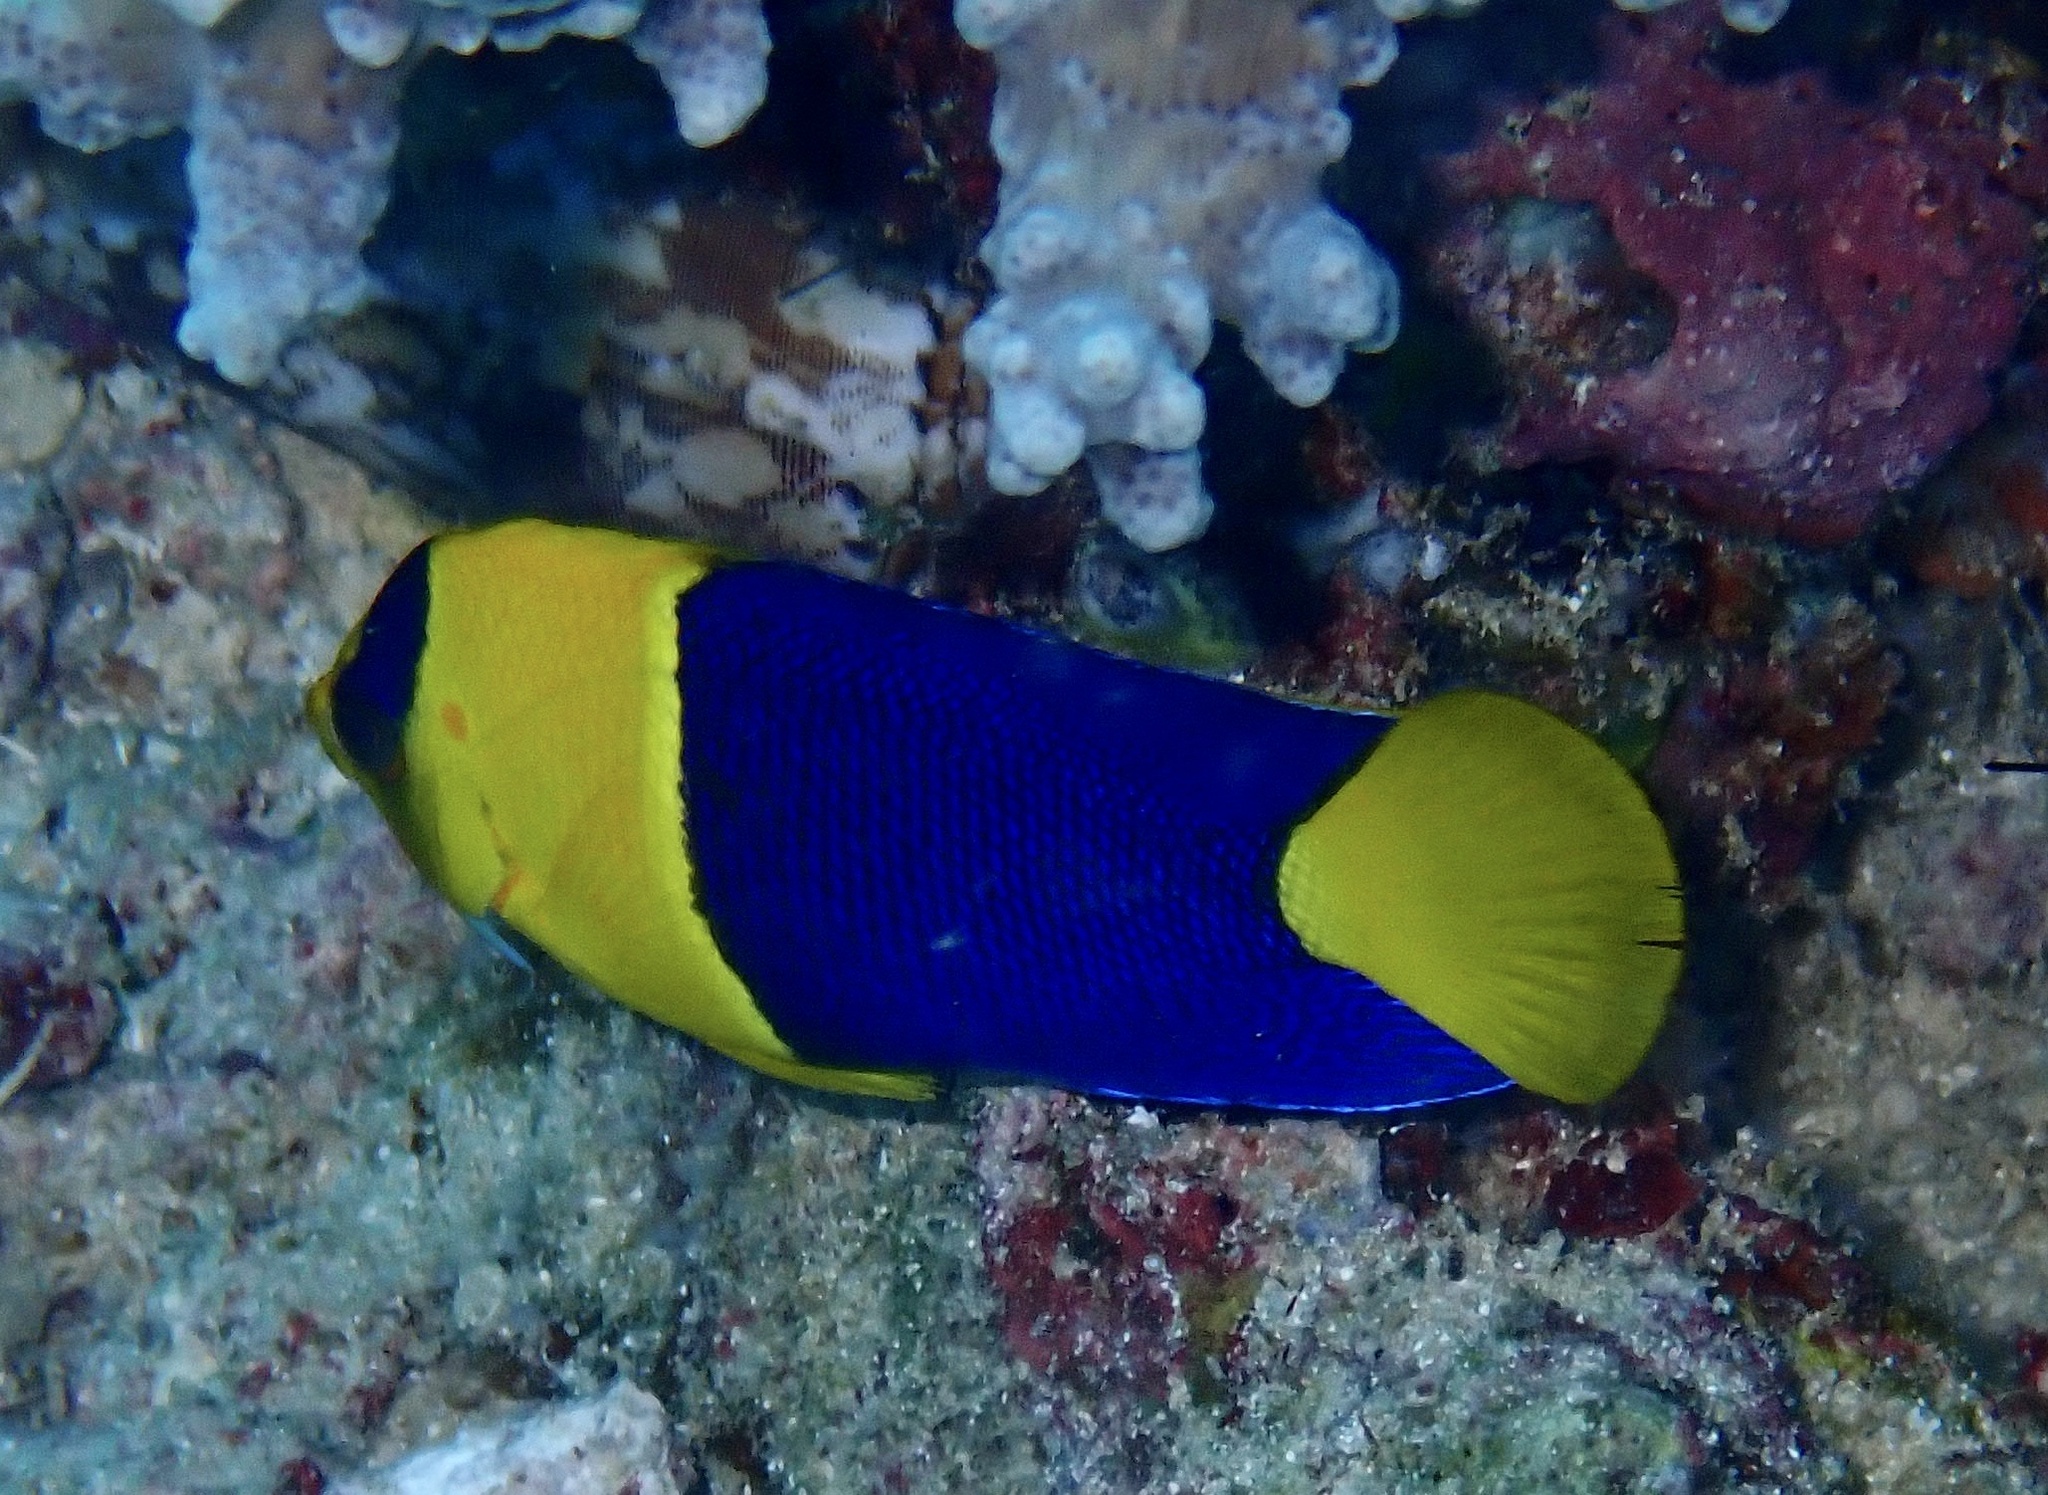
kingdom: Animalia
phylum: Chordata
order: Perciformes
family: Pomacanthidae
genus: Centropyge
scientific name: Centropyge bicolor
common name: Bicolor angelfish
